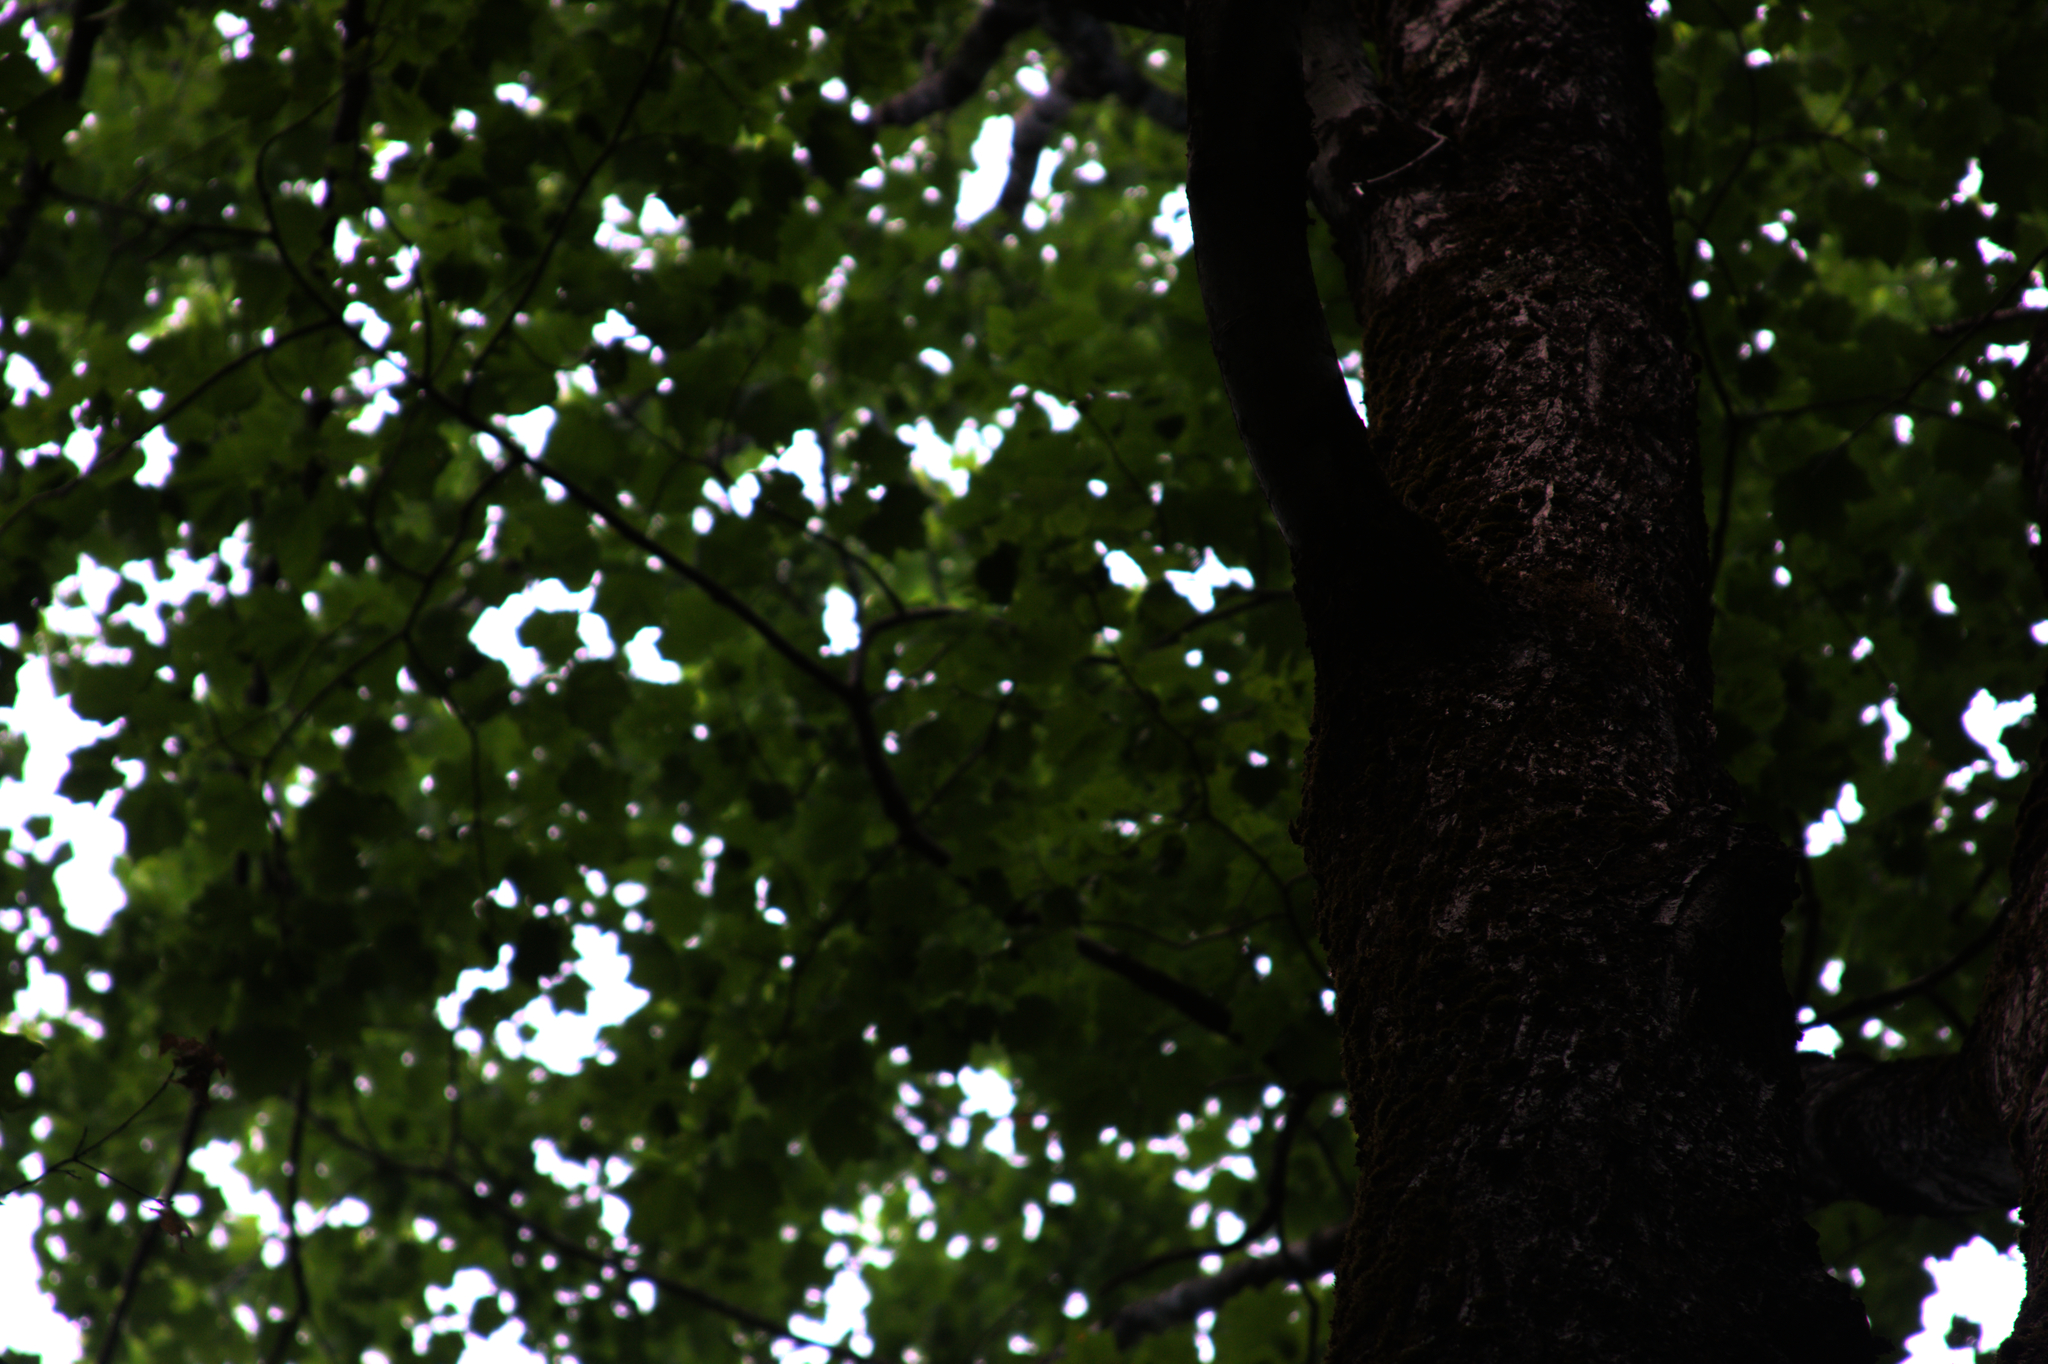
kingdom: Plantae
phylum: Tracheophyta
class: Magnoliopsida
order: Sapindales
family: Sapindaceae
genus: Acer
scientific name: Acer rubrum
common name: Red maple
